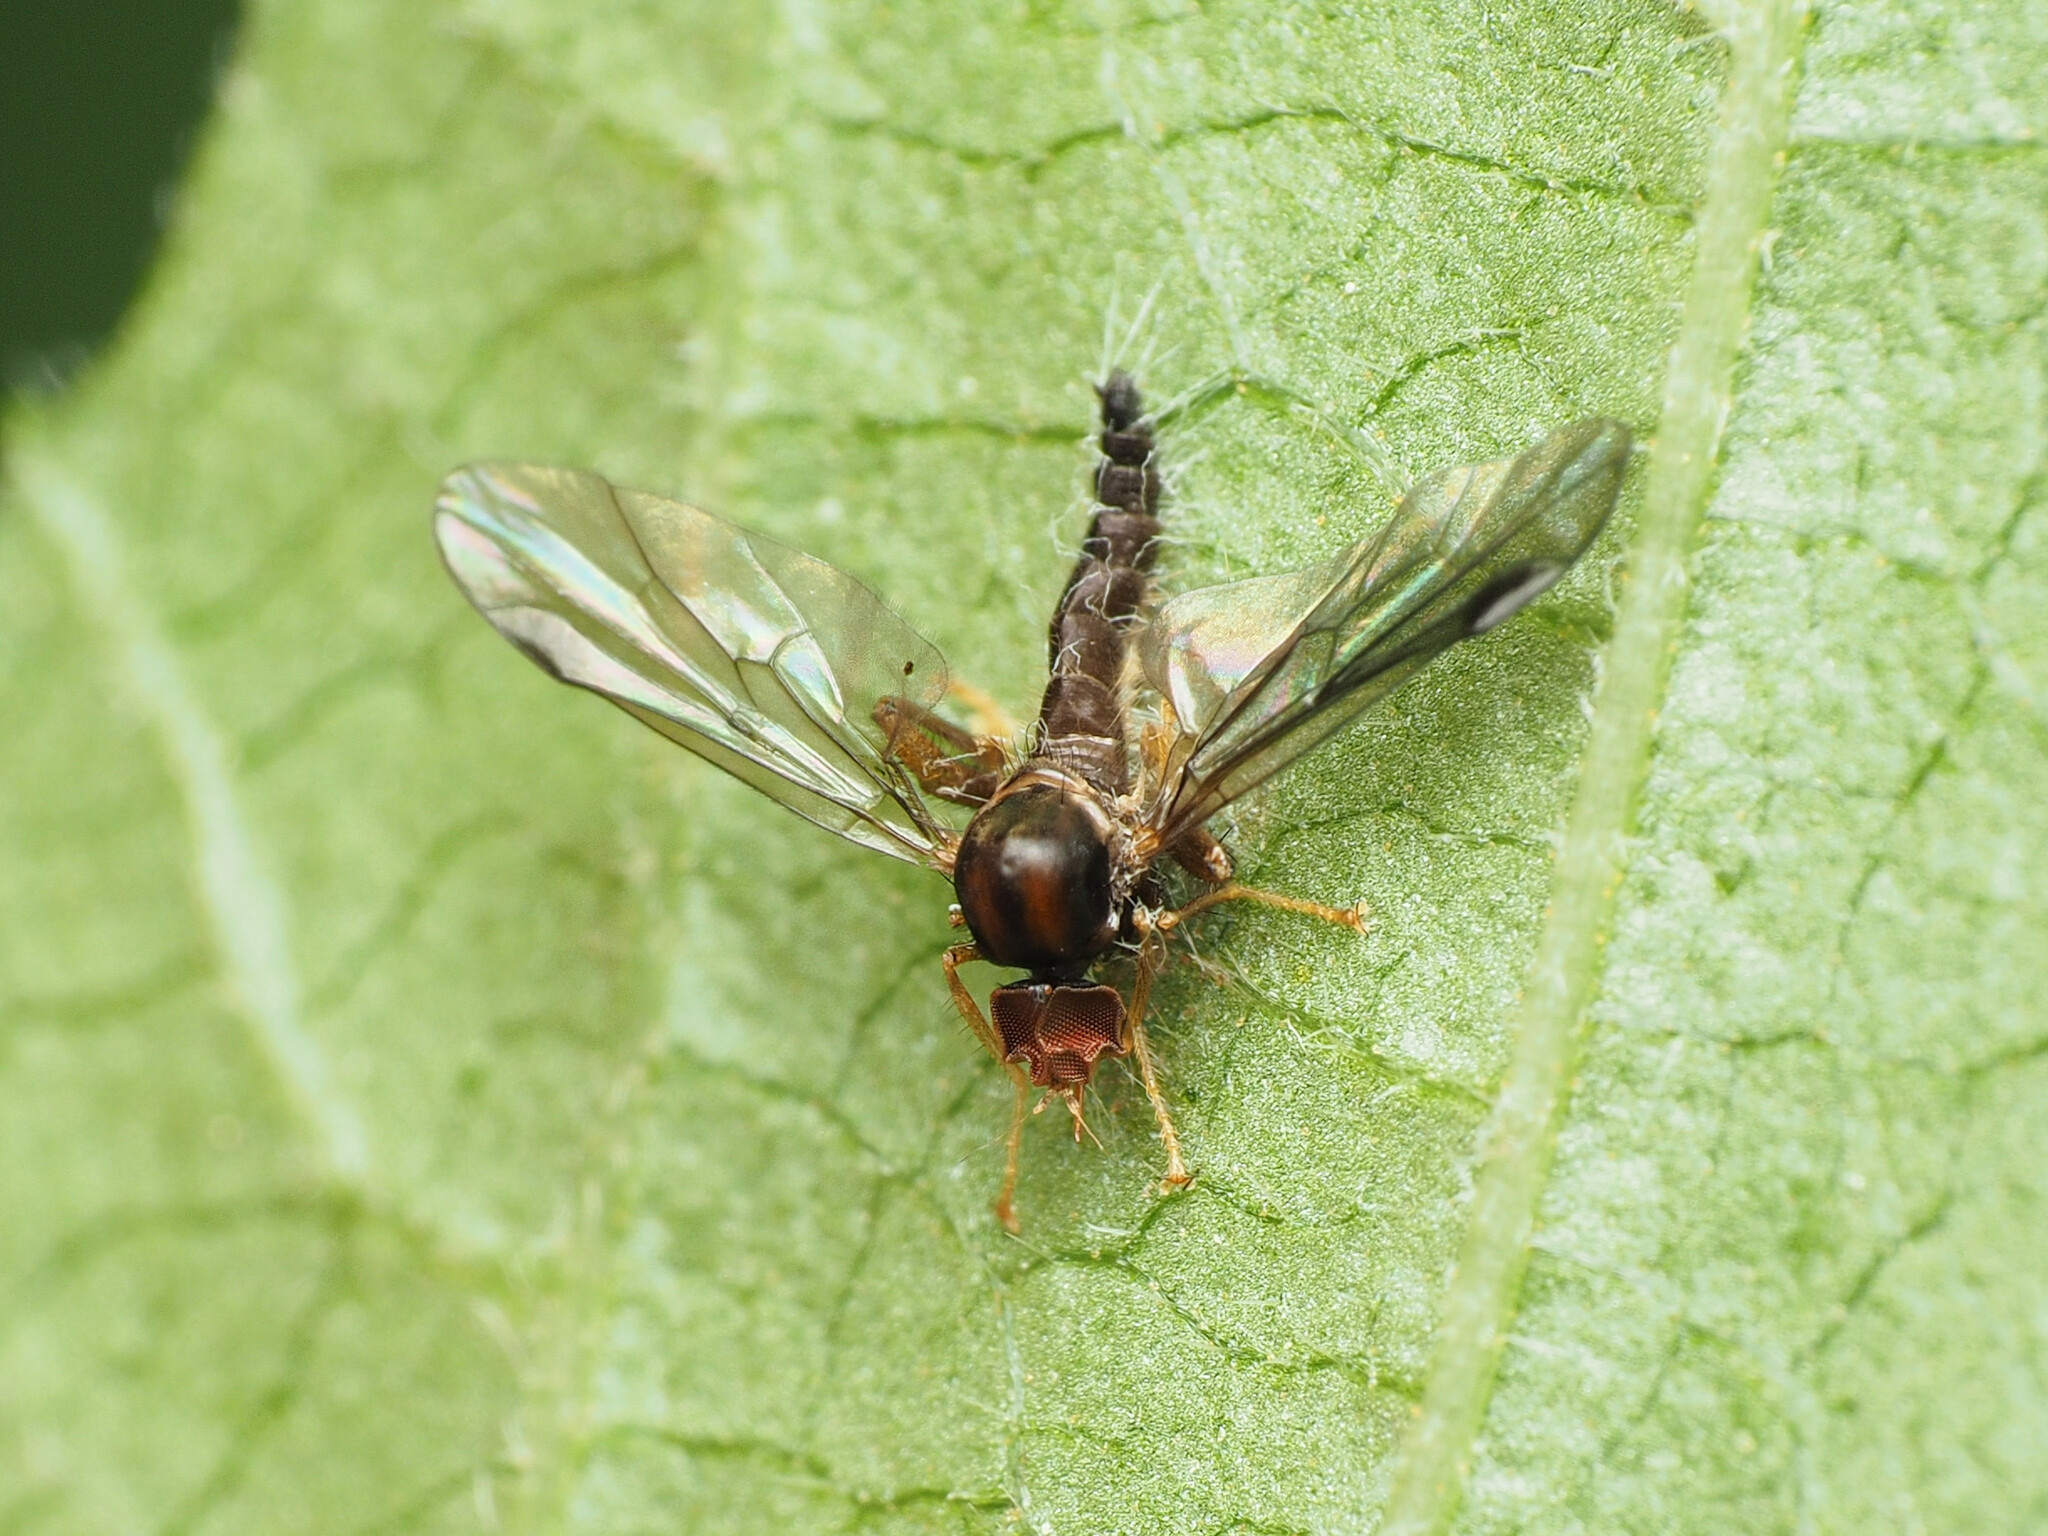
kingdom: Animalia
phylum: Arthropoda
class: Insecta
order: Diptera
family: Hybotidae
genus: Syneches
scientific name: Syneches thoracicus
